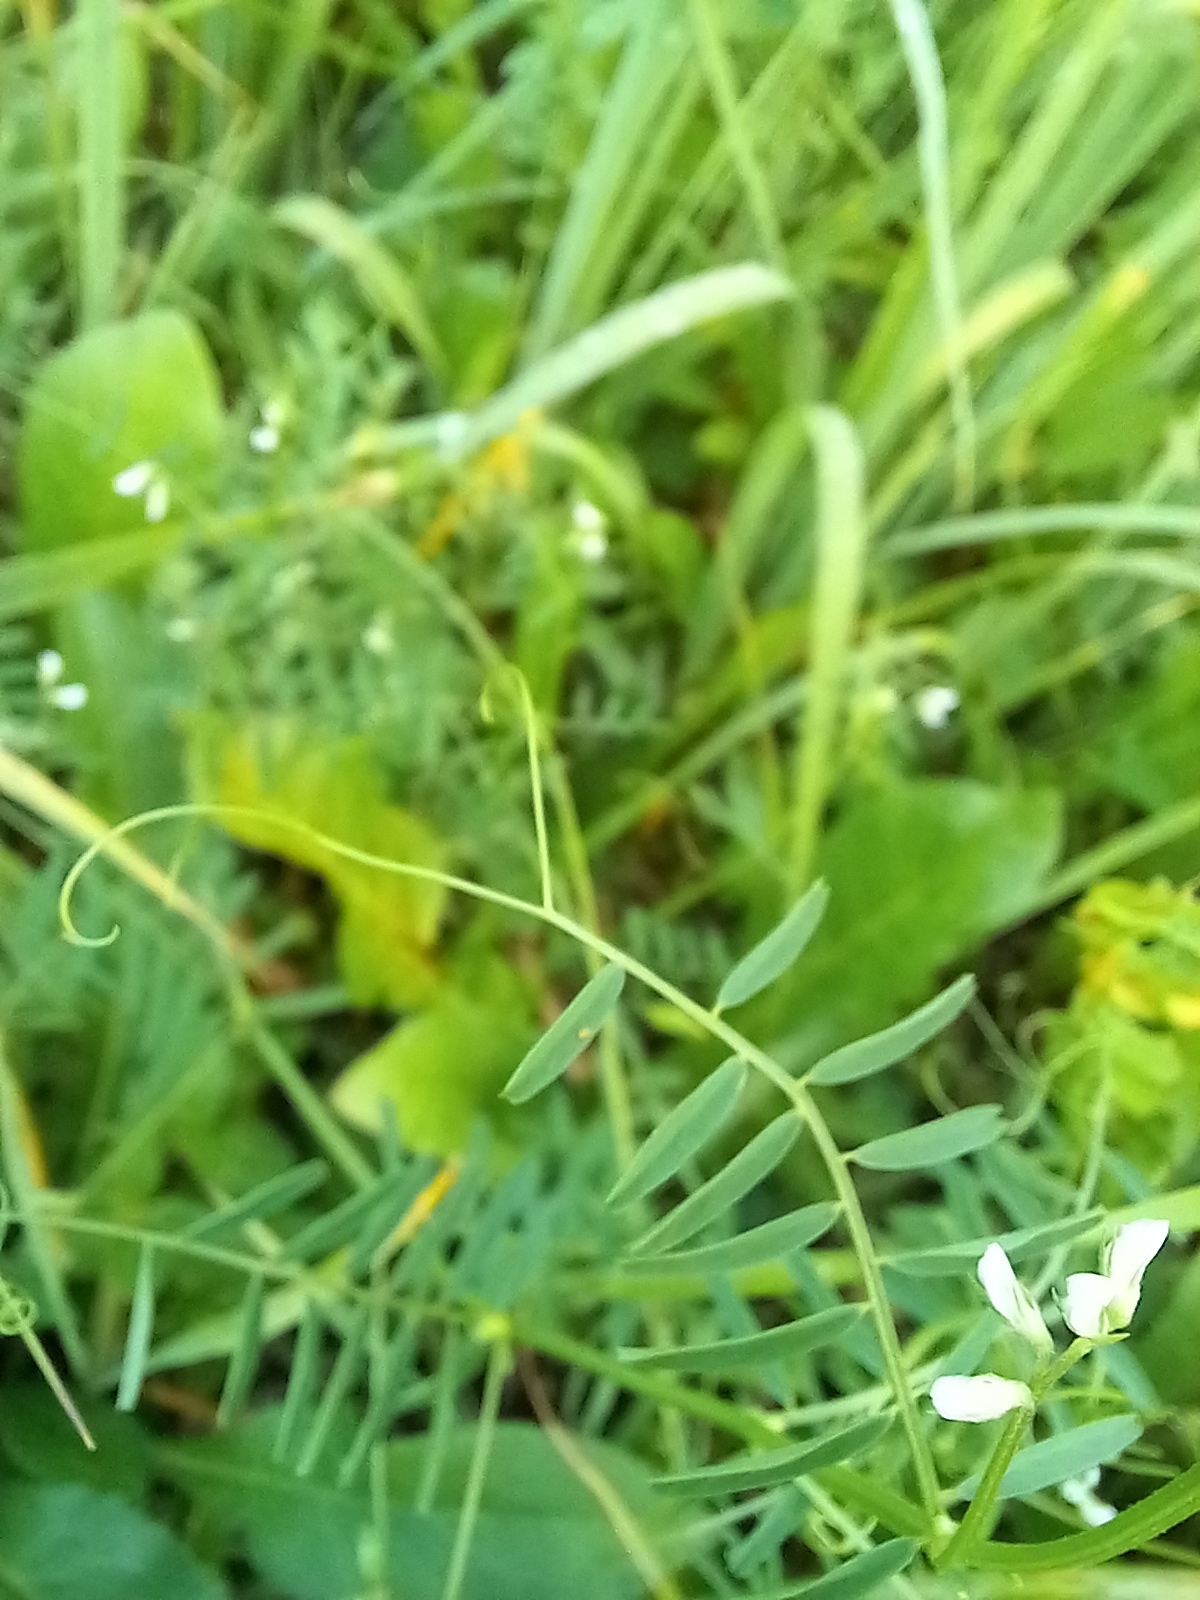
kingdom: Plantae
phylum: Tracheophyta
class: Magnoliopsida
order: Fabales
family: Fabaceae
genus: Vicia
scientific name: Vicia hirsuta
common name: Tiny vetch
